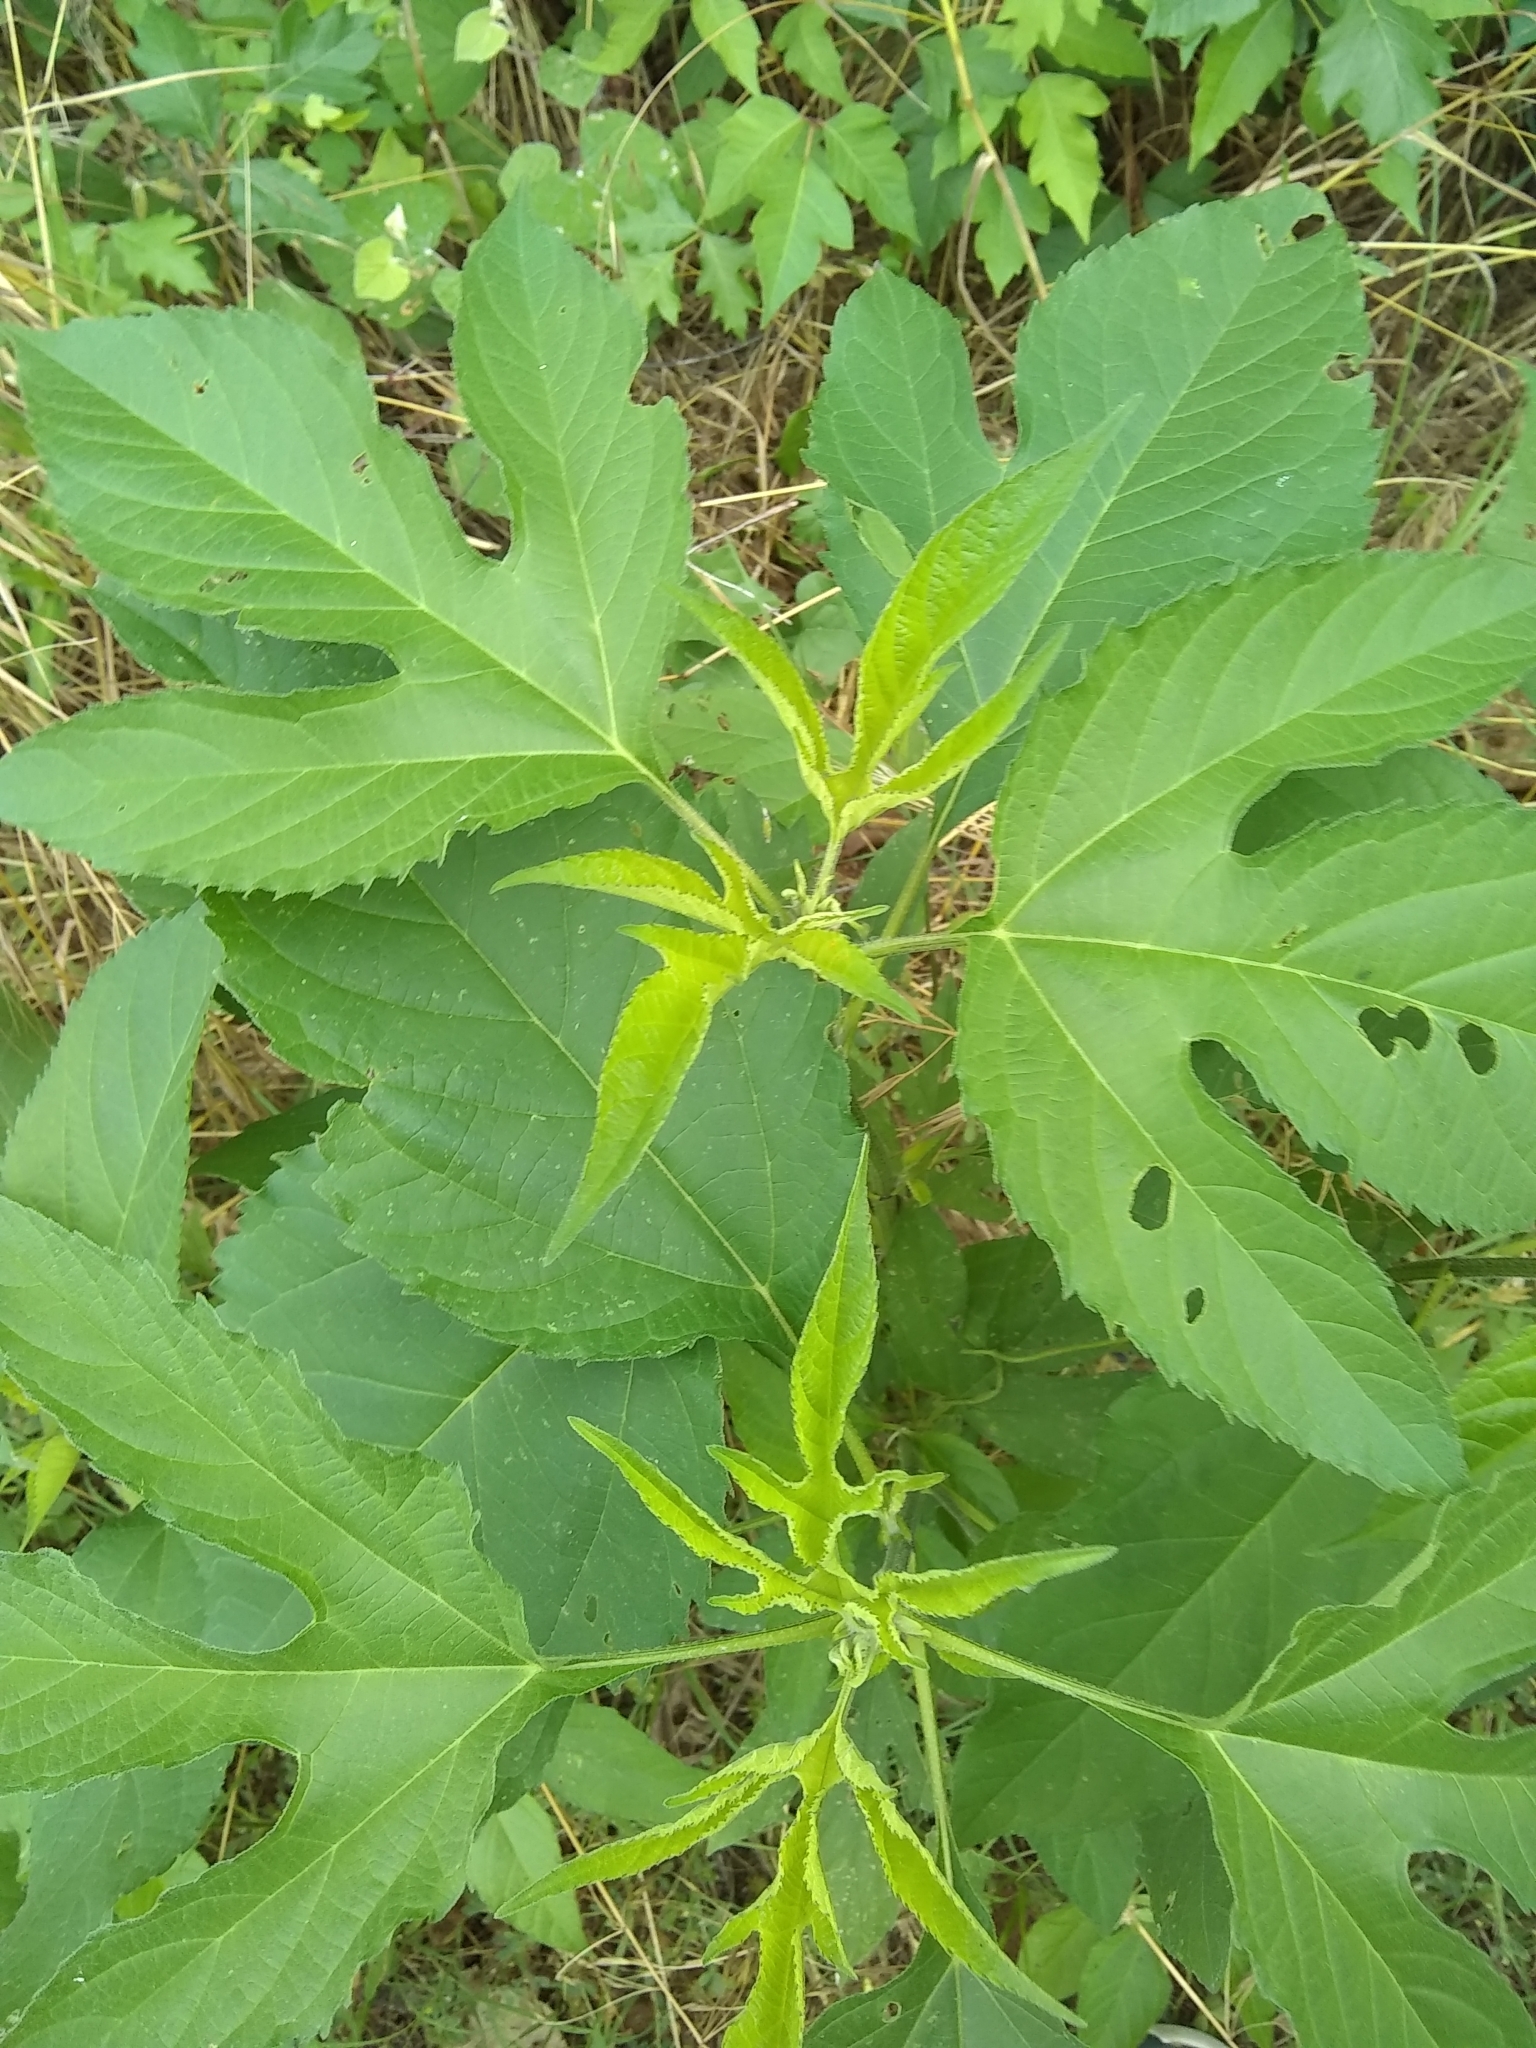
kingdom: Plantae
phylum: Tracheophyta
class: Magnoliopsida
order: Asterales
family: Asteraceae
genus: Ambrosia
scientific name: Ambrosia trifida
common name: Giant ragweed
